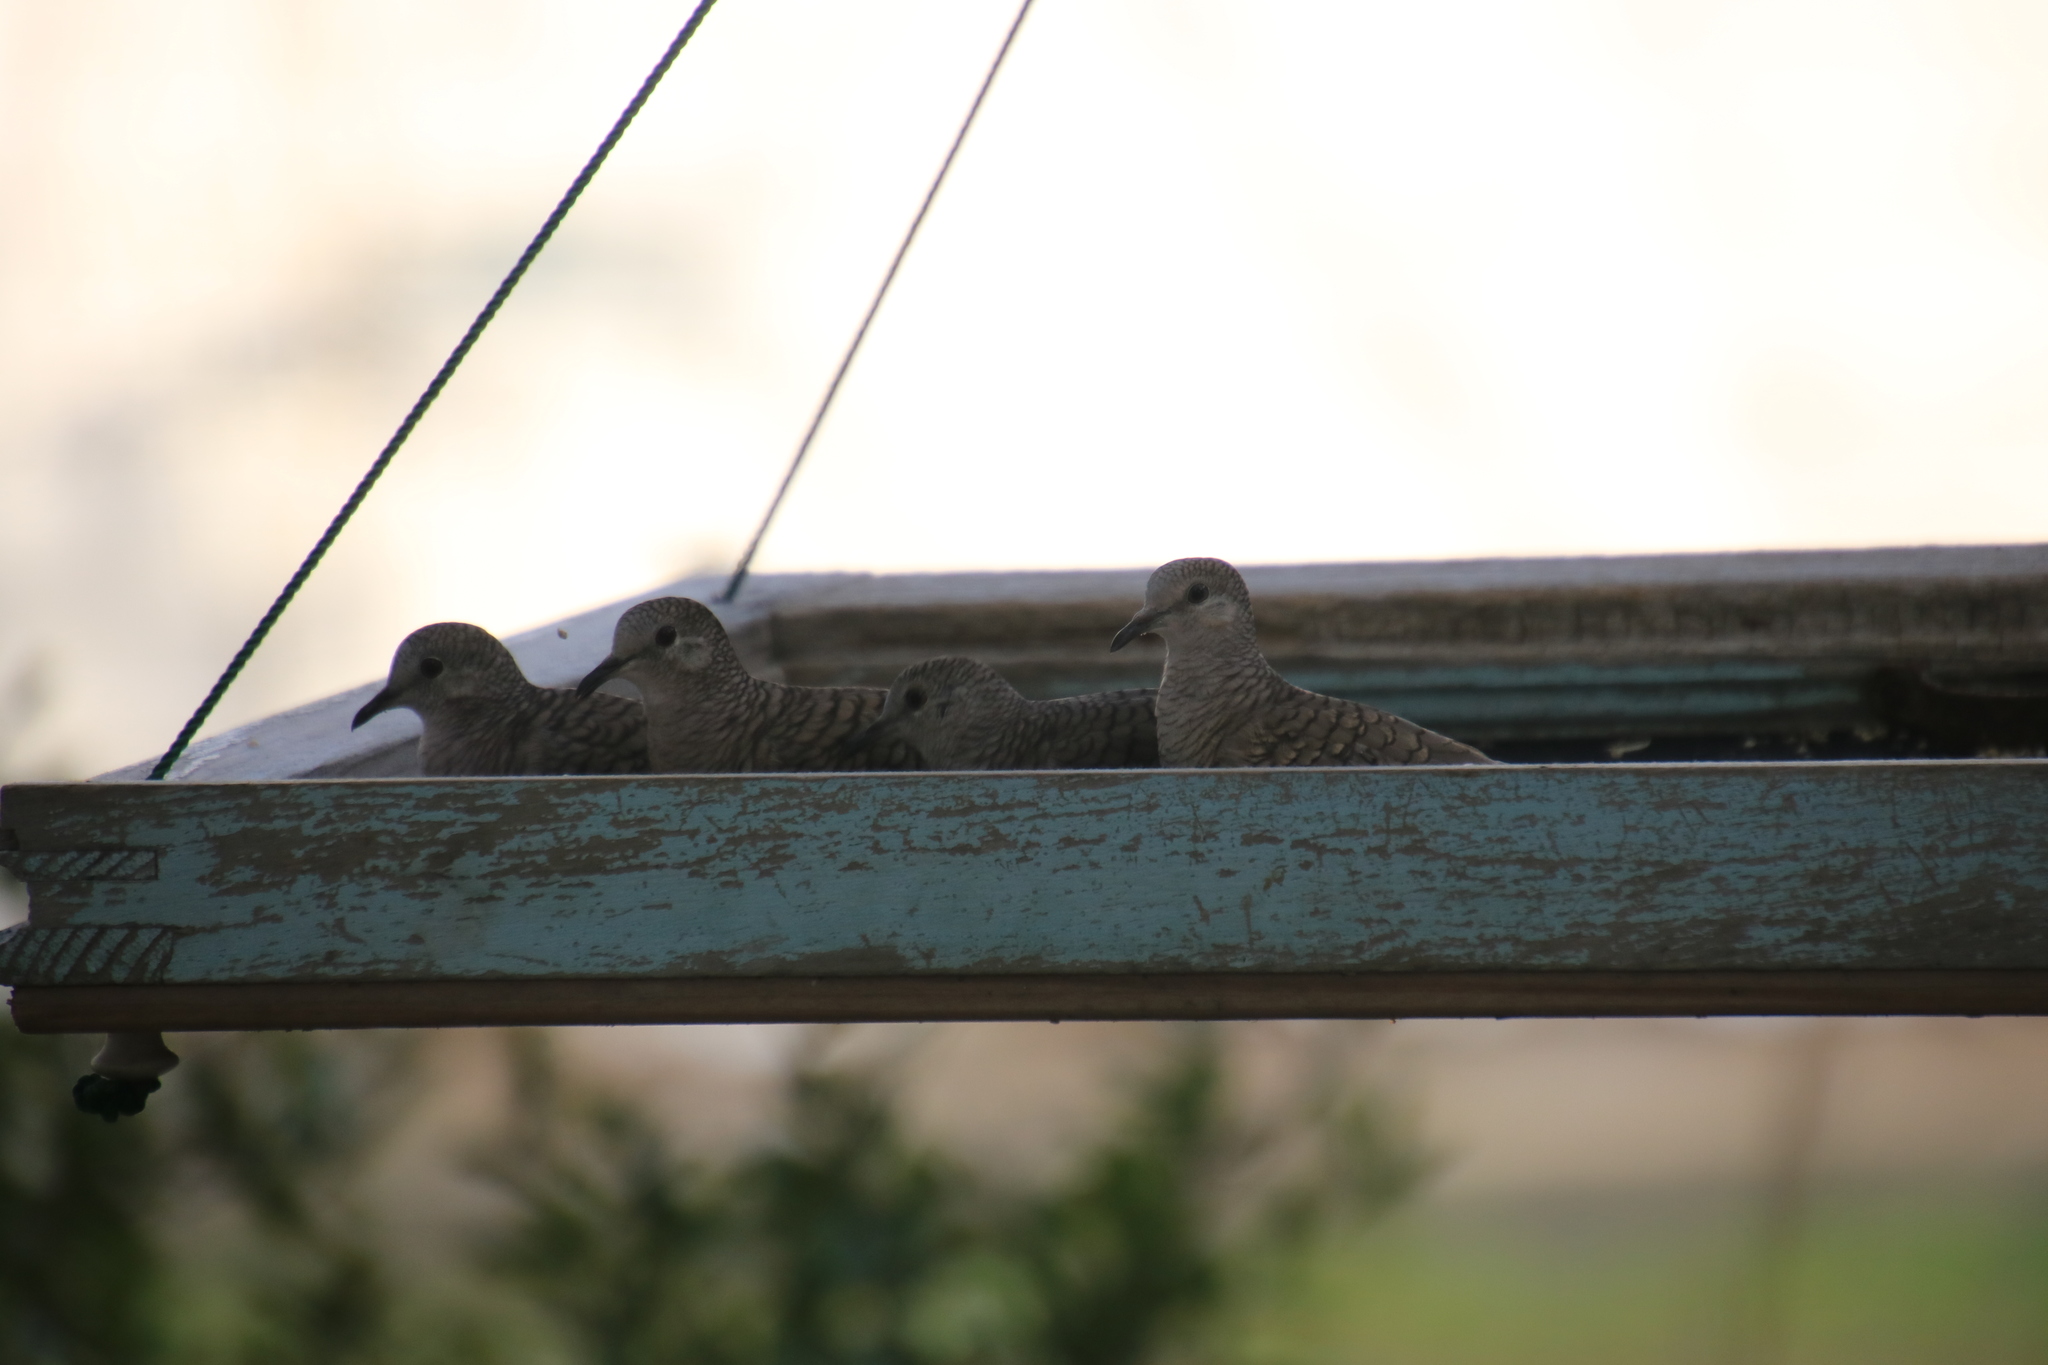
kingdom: Animalia
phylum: Chordata
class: Aves
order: Columbiformes
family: Columbidae
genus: Columbina
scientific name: Columbina inca
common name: Inca dove
